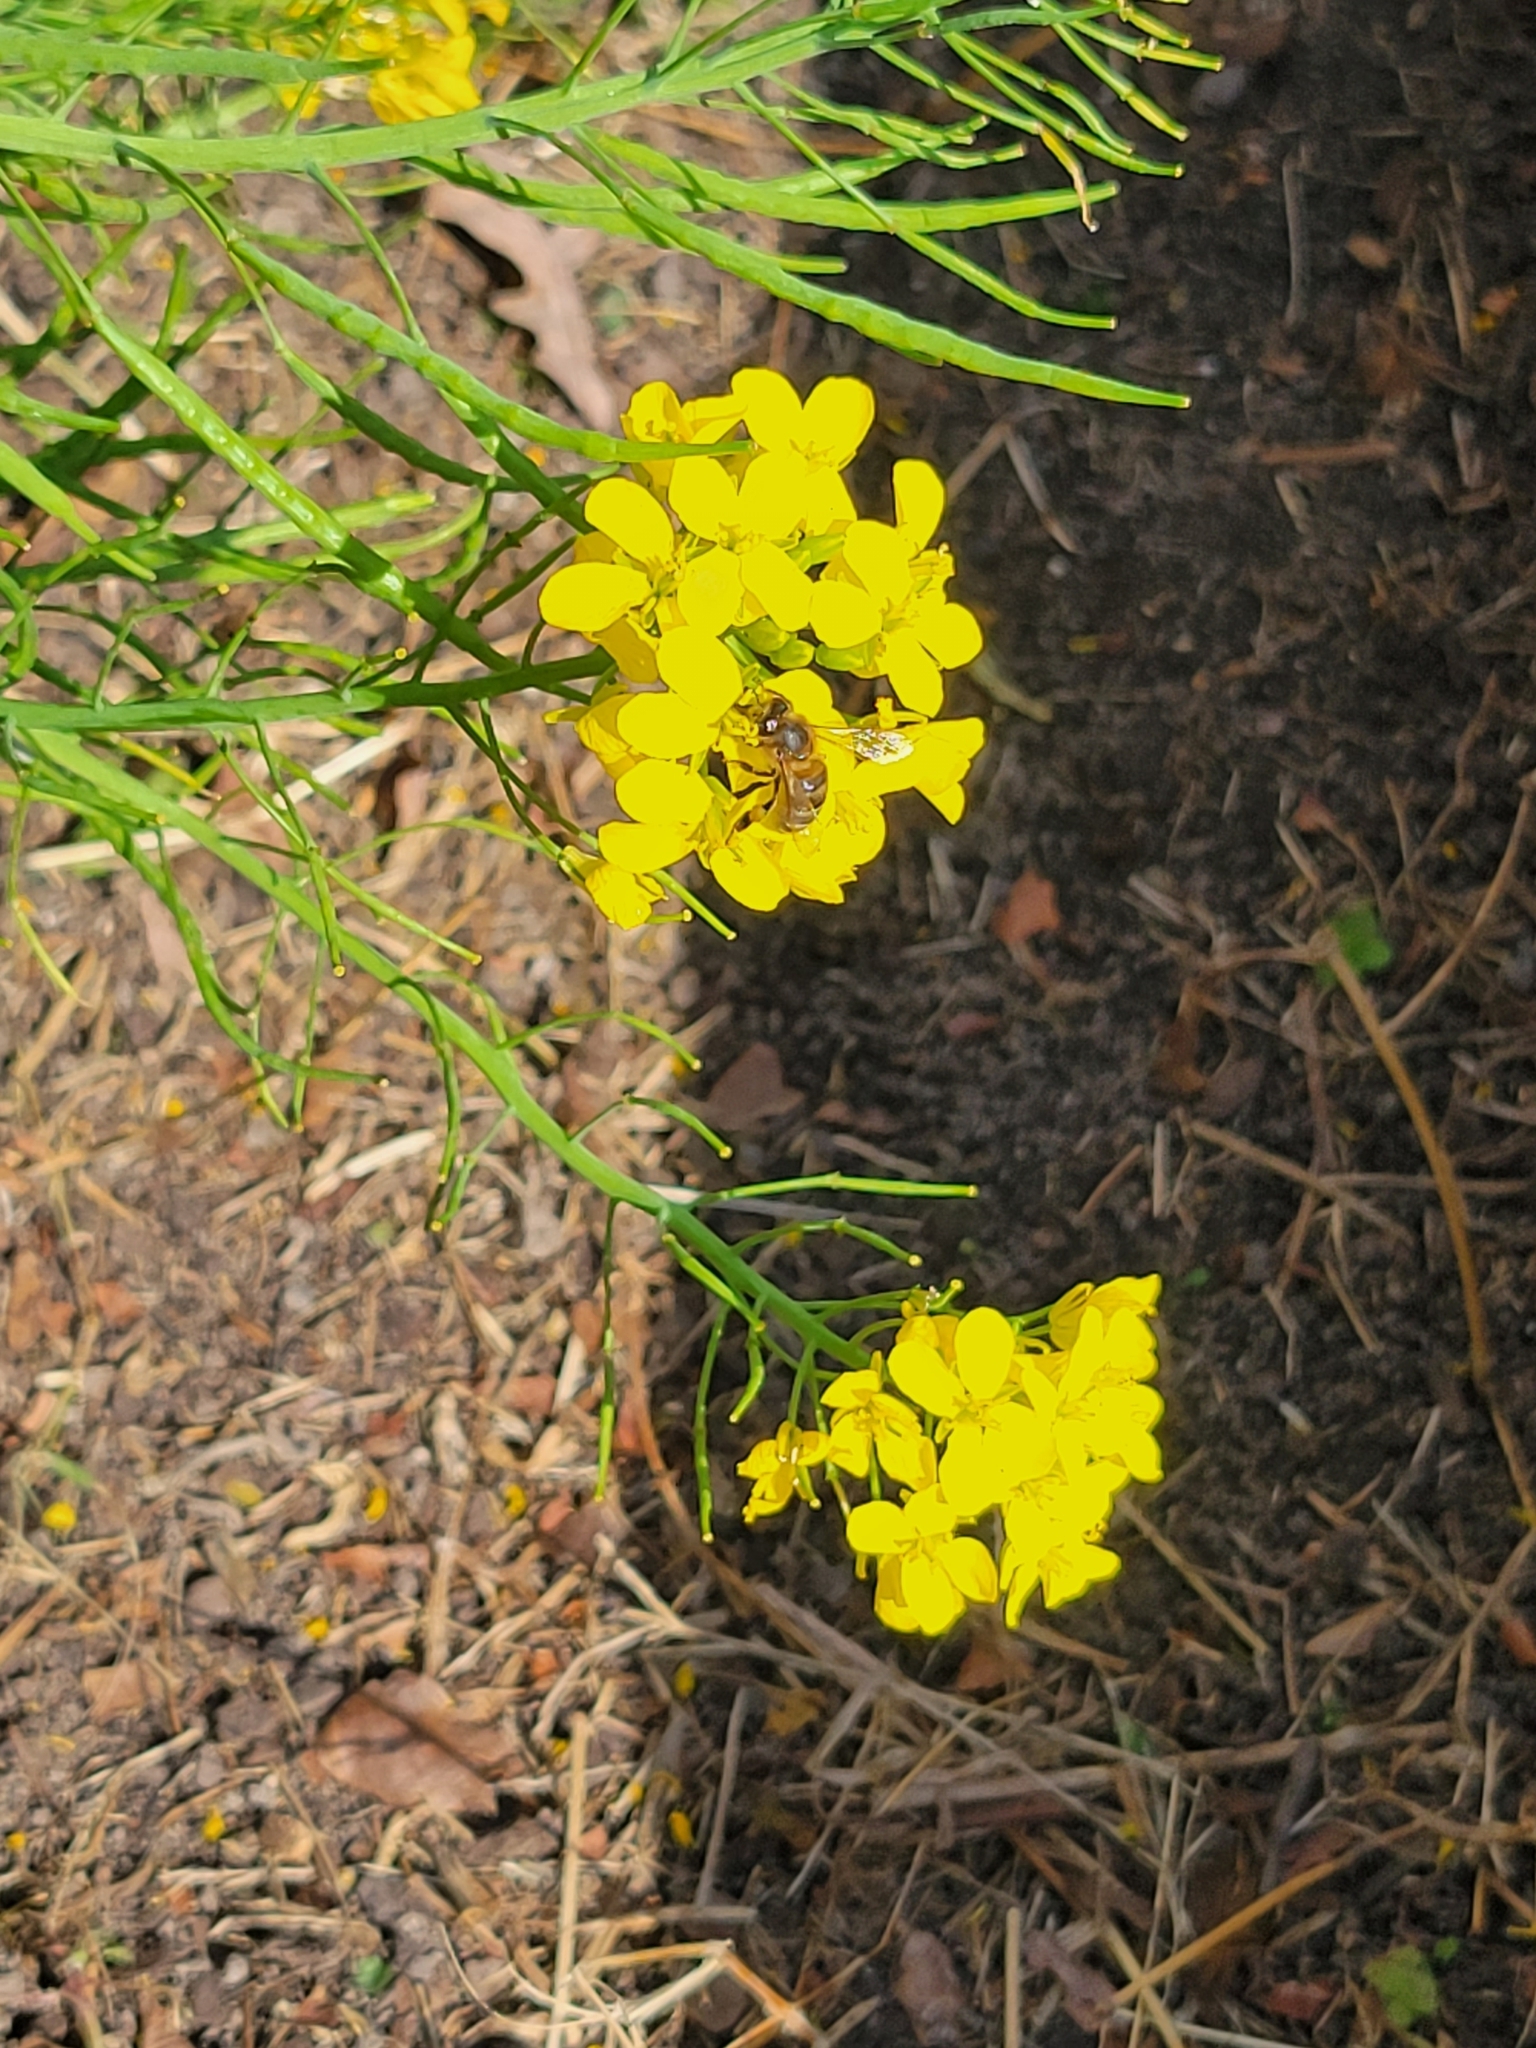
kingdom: Animalia
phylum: Arthropoda
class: Insecta
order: Hymenoptera
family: Apidae
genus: Apis
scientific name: Apis mellifera
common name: Honey bee
